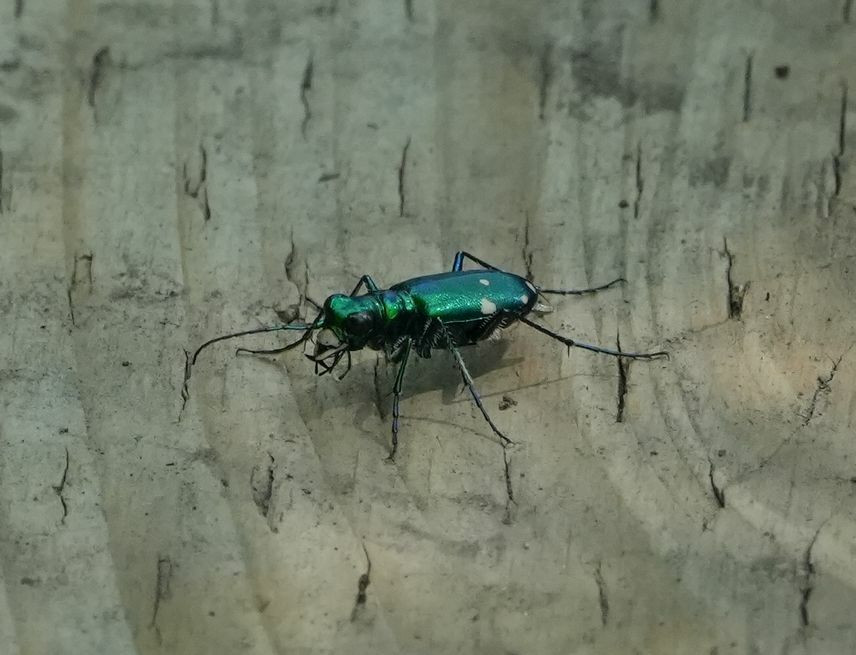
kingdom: Animalia
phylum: Arthropoda
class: Insecta
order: Coleoptera
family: Carabidae
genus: Cicindela
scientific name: Cicindela sexguttata
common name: Six-spotted tiger beetle
